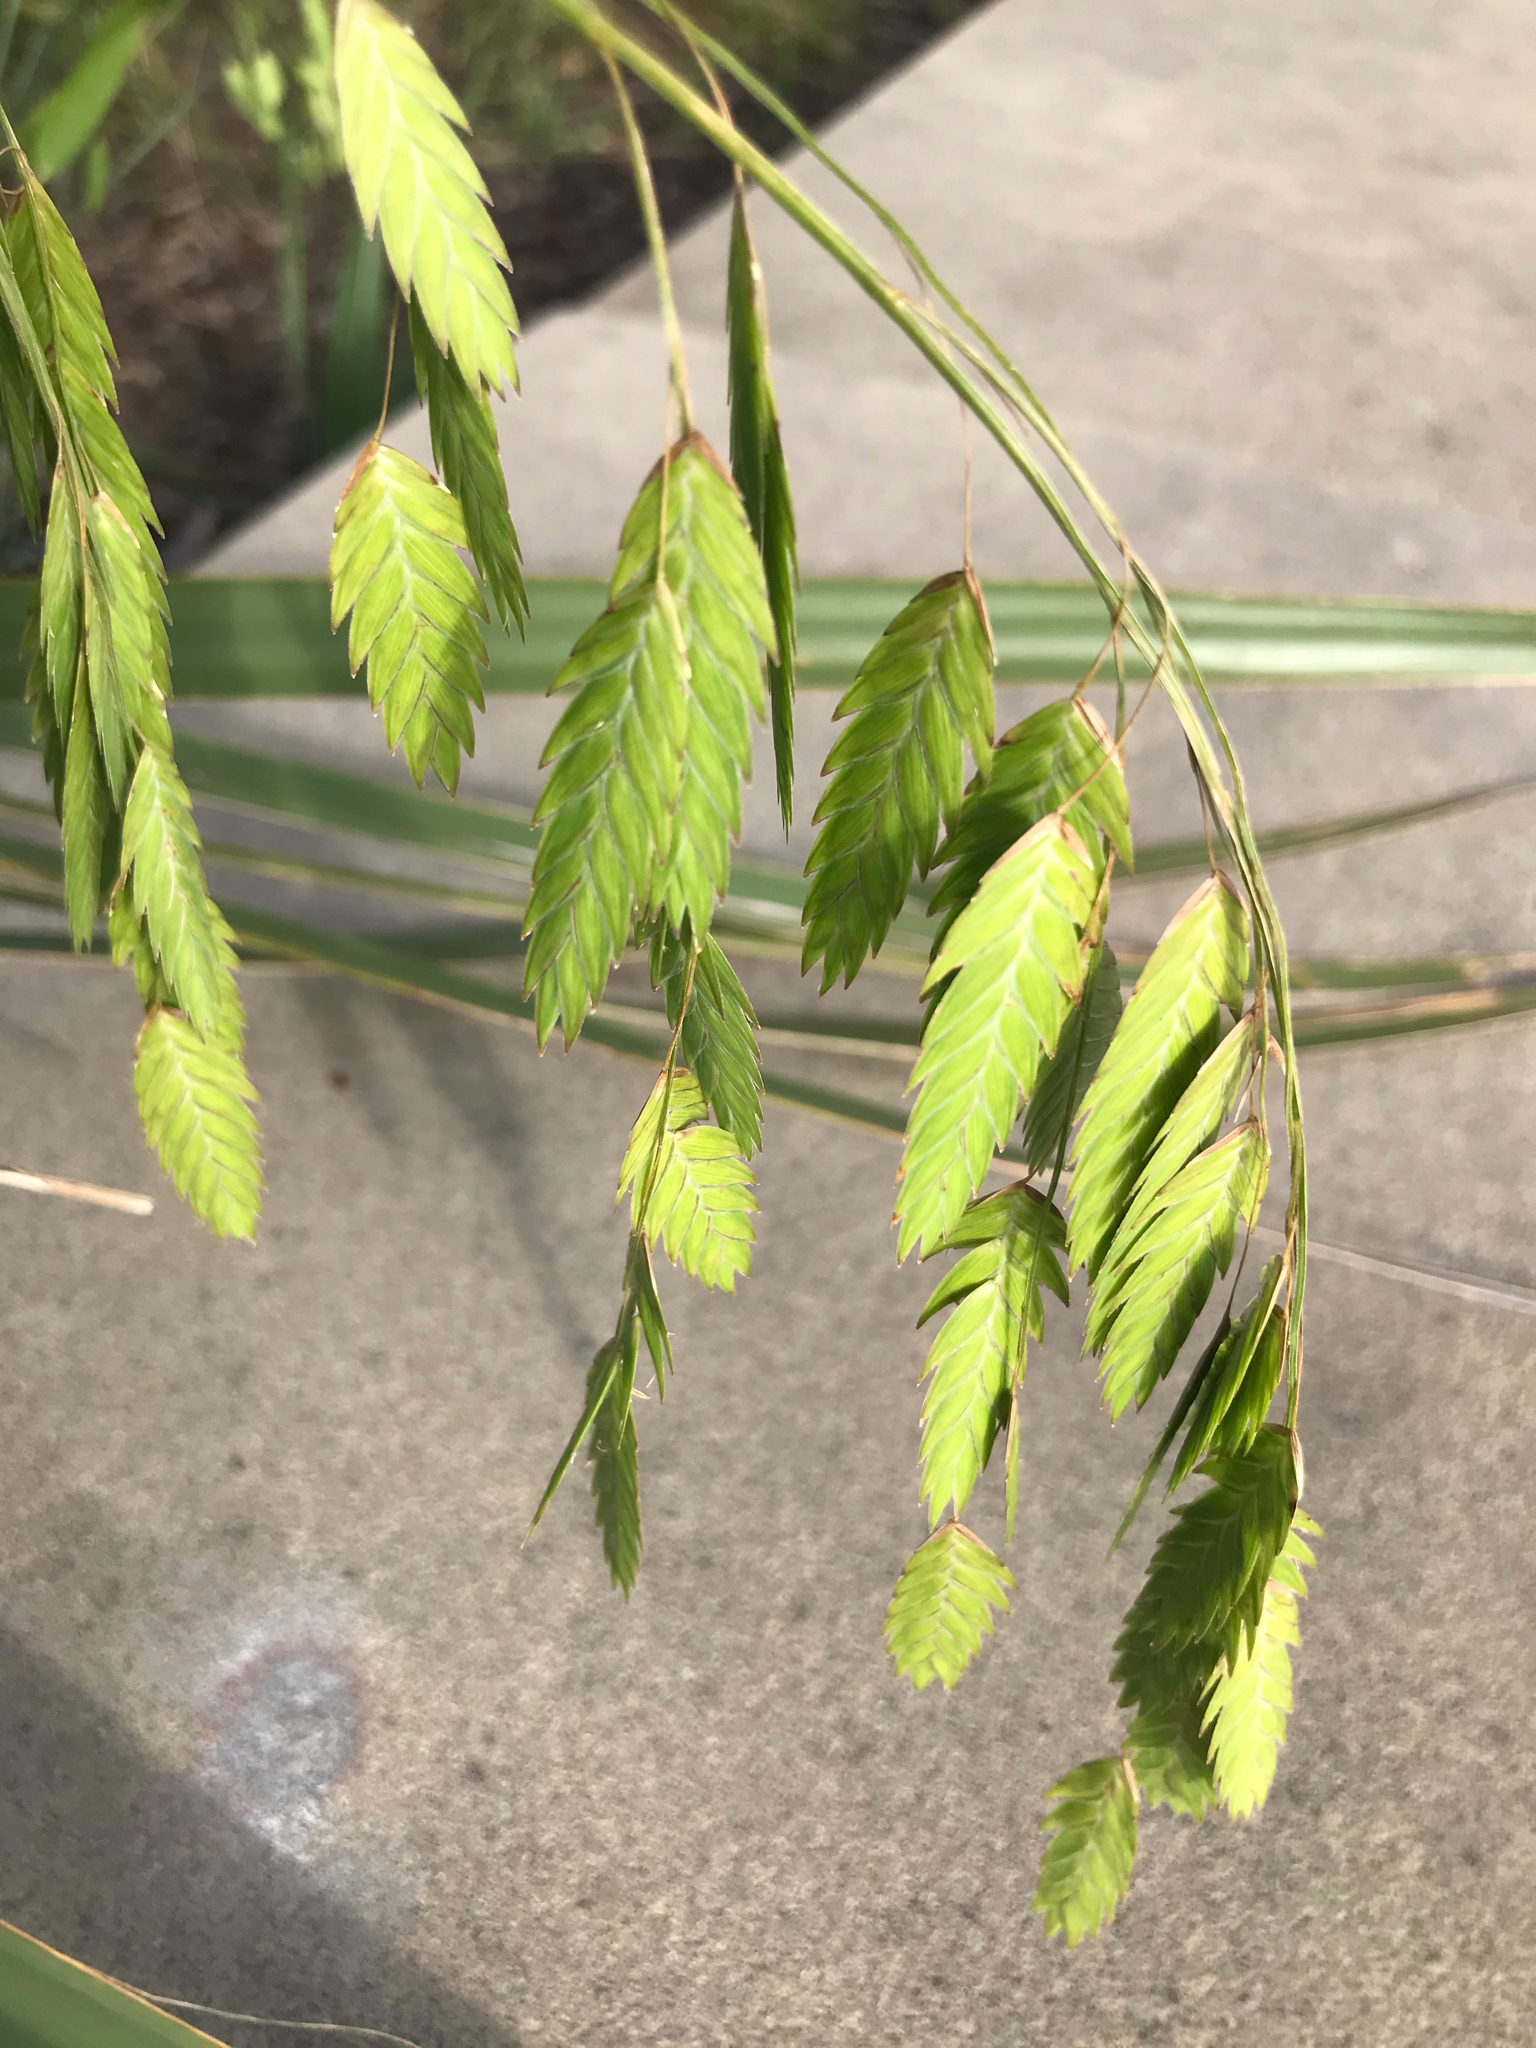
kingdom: Plantae
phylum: Tracheophyta
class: Liliopsida
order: Poales
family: Poaceae
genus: Chasmanthium
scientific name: Chasmanthium latifolium
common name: Broad-leaved chasmanthium
